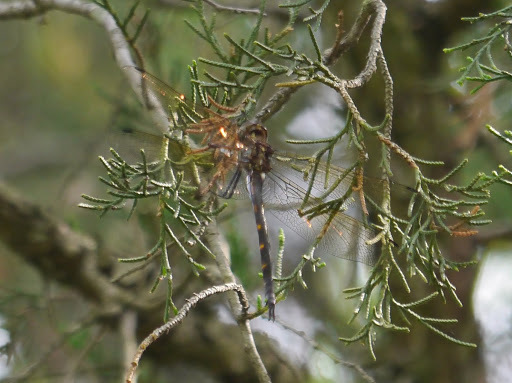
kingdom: Animalia
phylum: Arthropoda
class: Insecta
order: Odonata
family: Corduliidae
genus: Somatochlora
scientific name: Somatochlora linearis
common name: Mocha emerald
